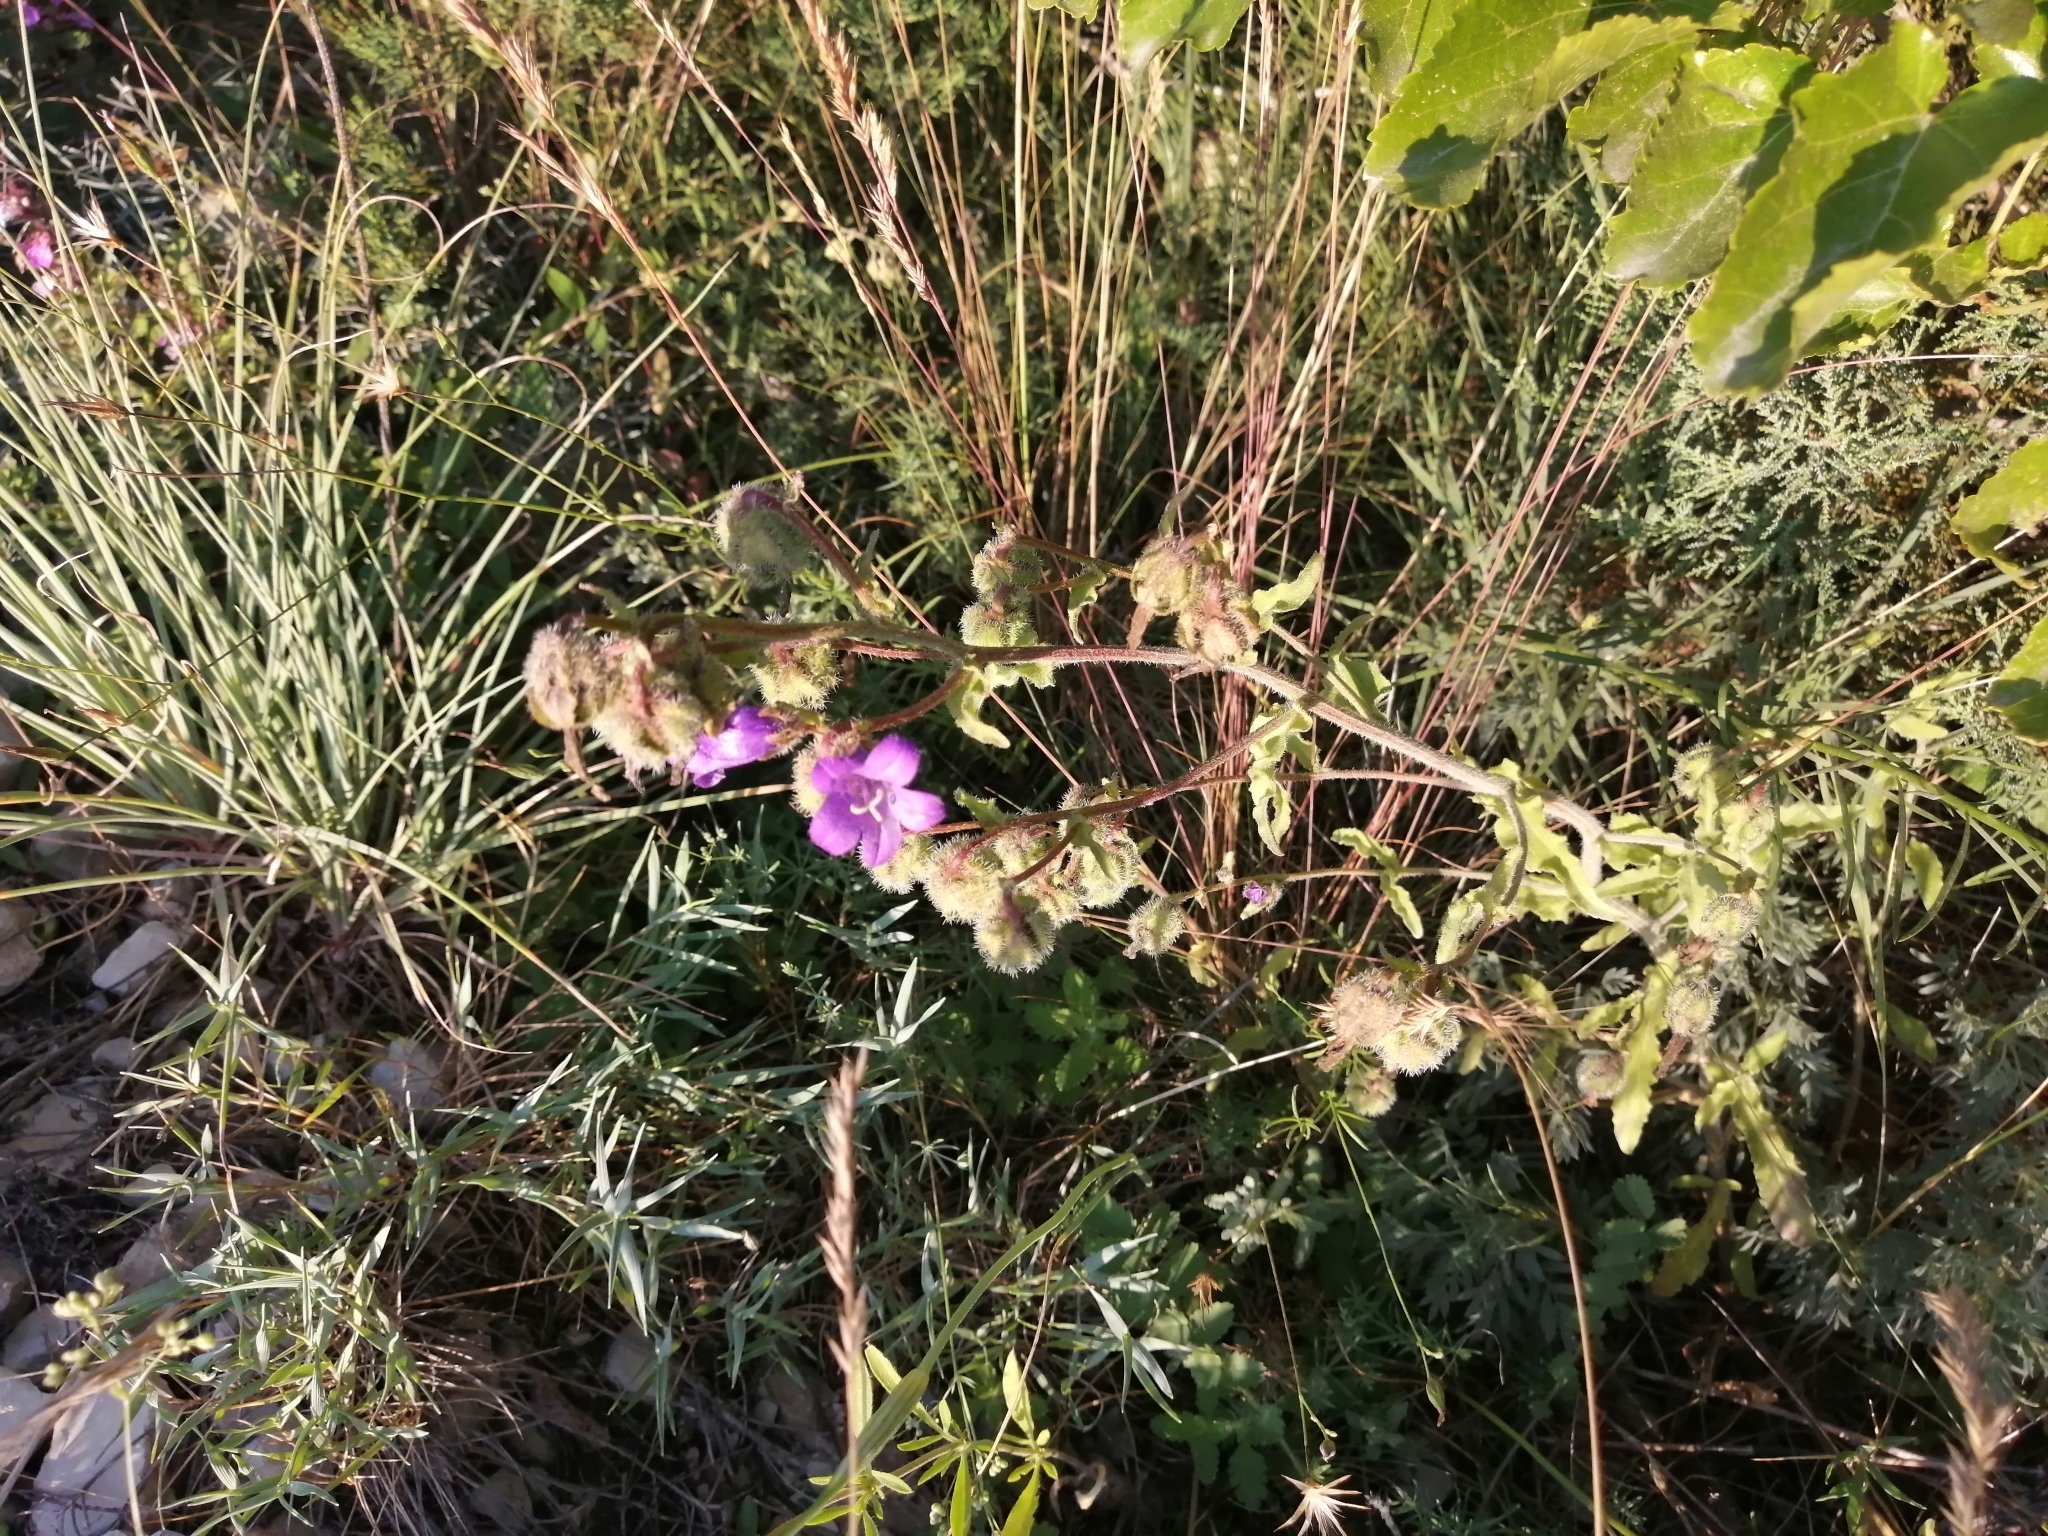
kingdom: Plantae
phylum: Tracheophyta
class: Magnoliopsida
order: Asterales
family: Campanulaceae
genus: Campanula
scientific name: Campanula komarovii
